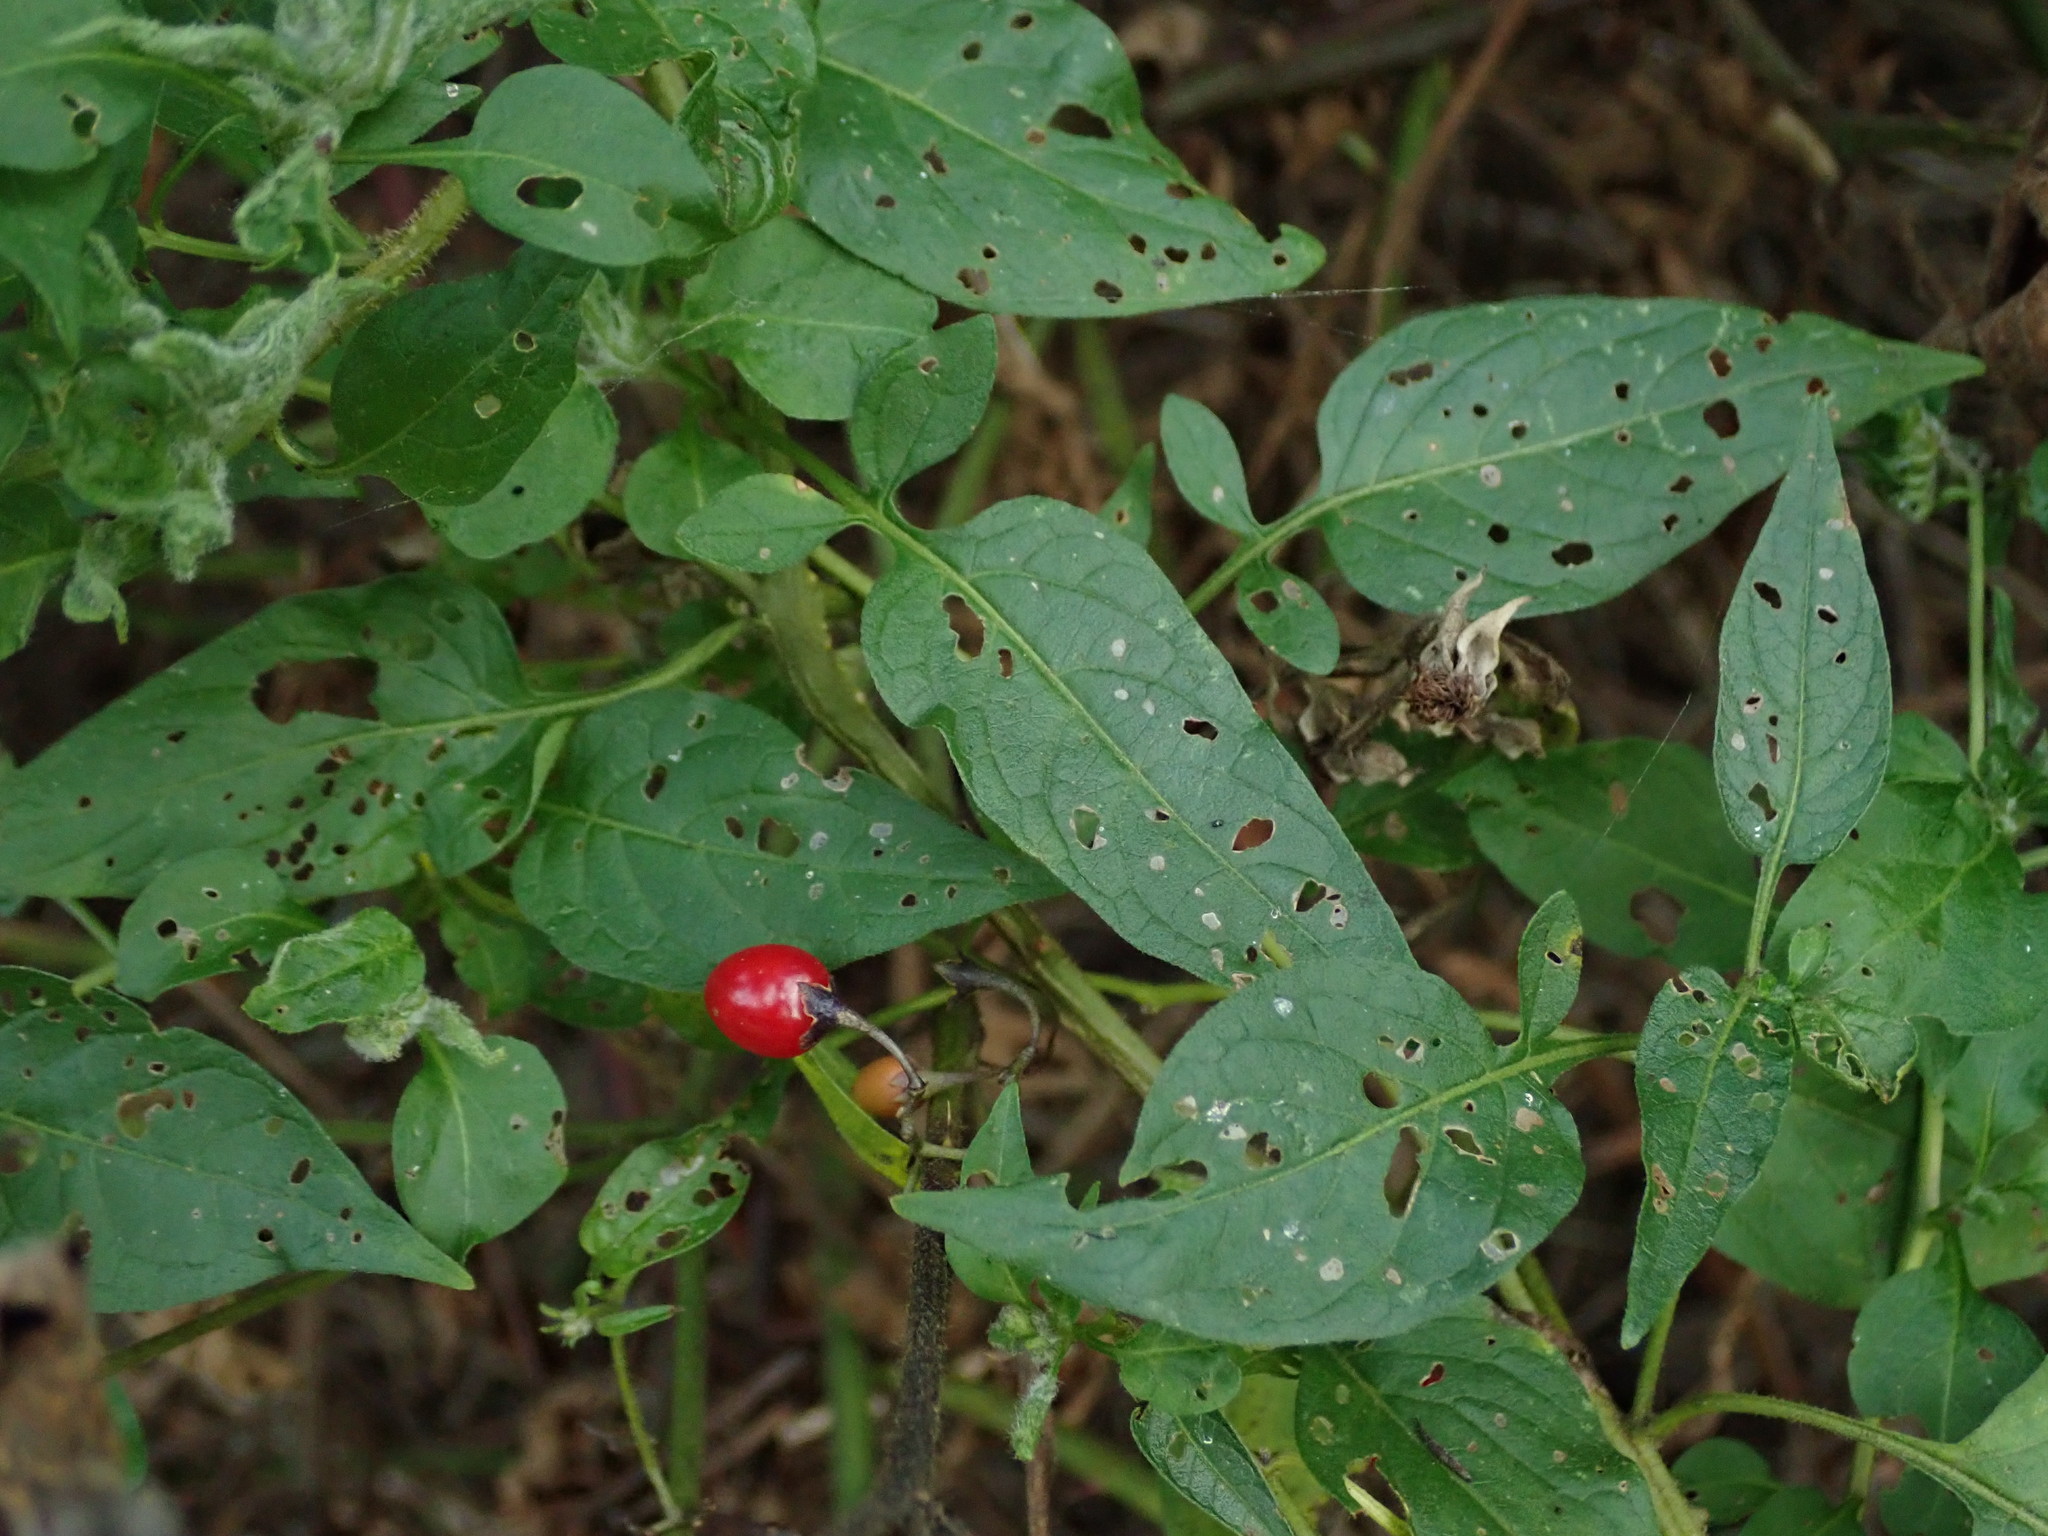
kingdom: Plantae
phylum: Tracheophyta
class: Magnoliopsida
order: Solanales
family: Solanaceae
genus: Solanum
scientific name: Solanum dulcamara
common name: Climbing nightshade
